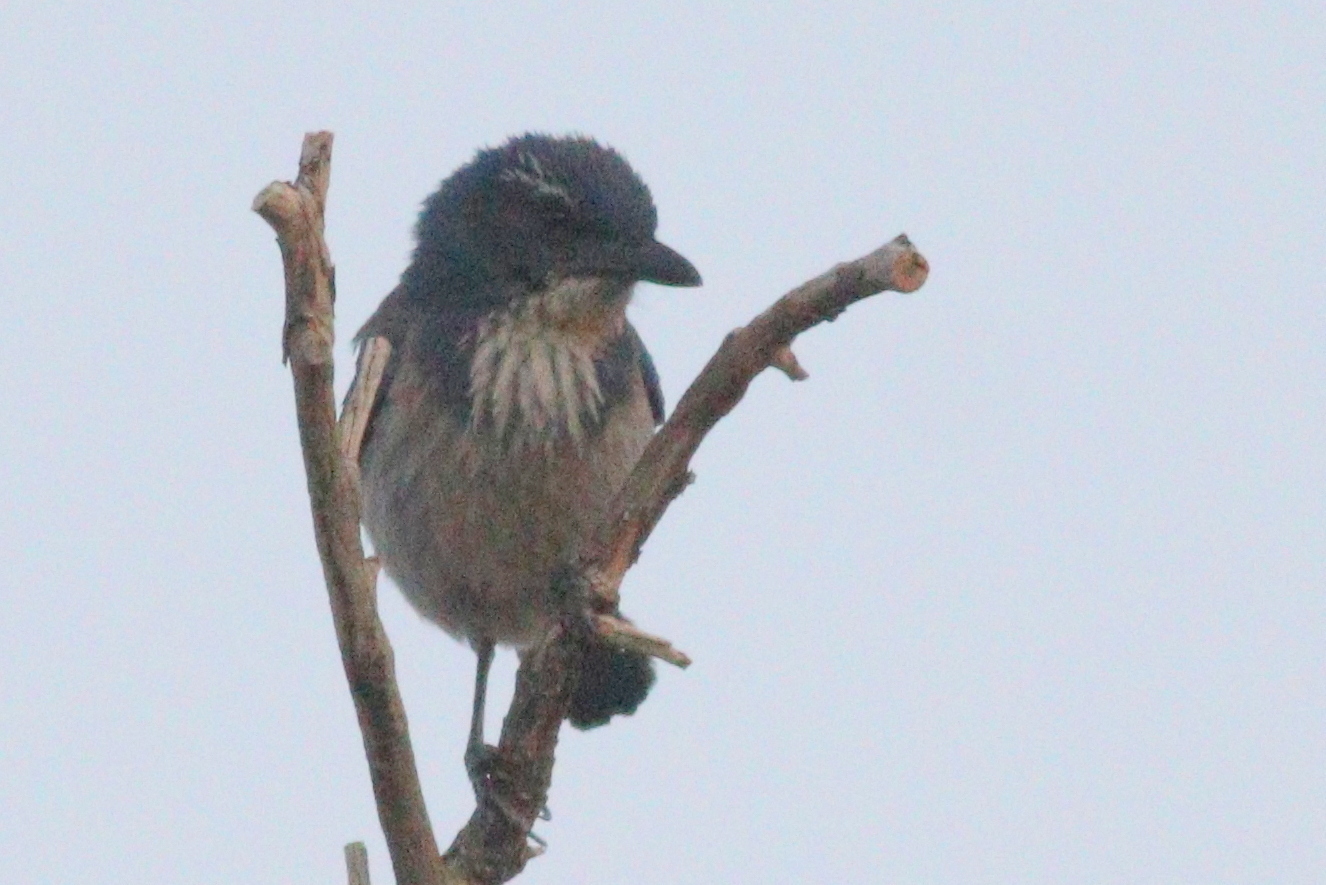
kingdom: Animalia
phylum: Chordata
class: Aves
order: Passeriformes
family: Corvidae
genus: Aphelocoma
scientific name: Aphelocoma californica
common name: California scrub-jay
